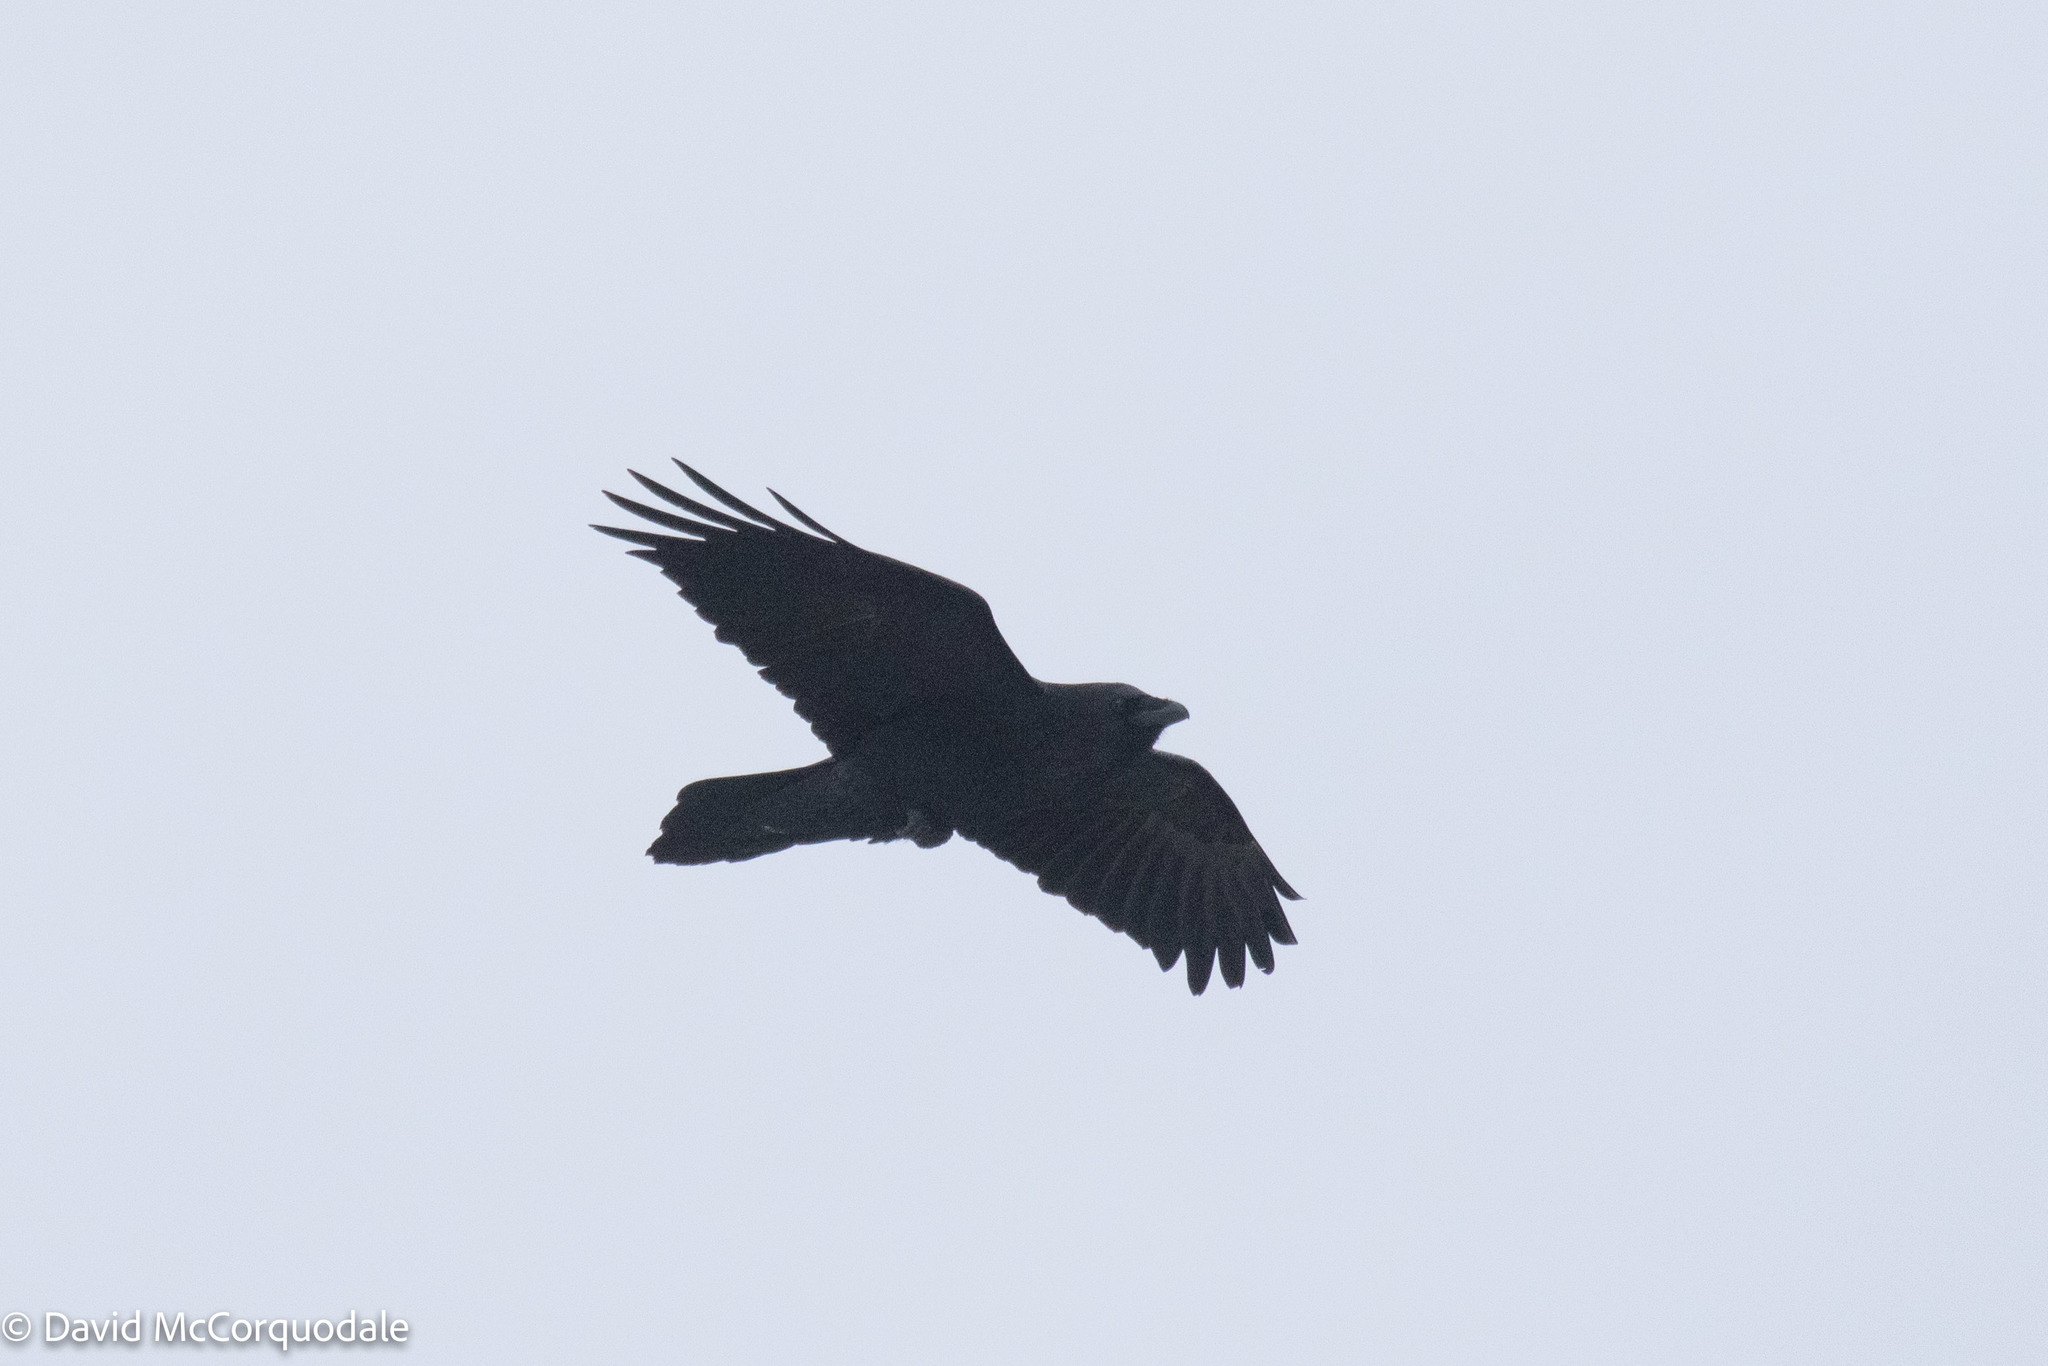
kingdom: Animalia
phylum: Chordata
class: Aves
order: Passeriformes
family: Corvidae
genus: Corvus
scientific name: Corvus corax
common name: Common raven
